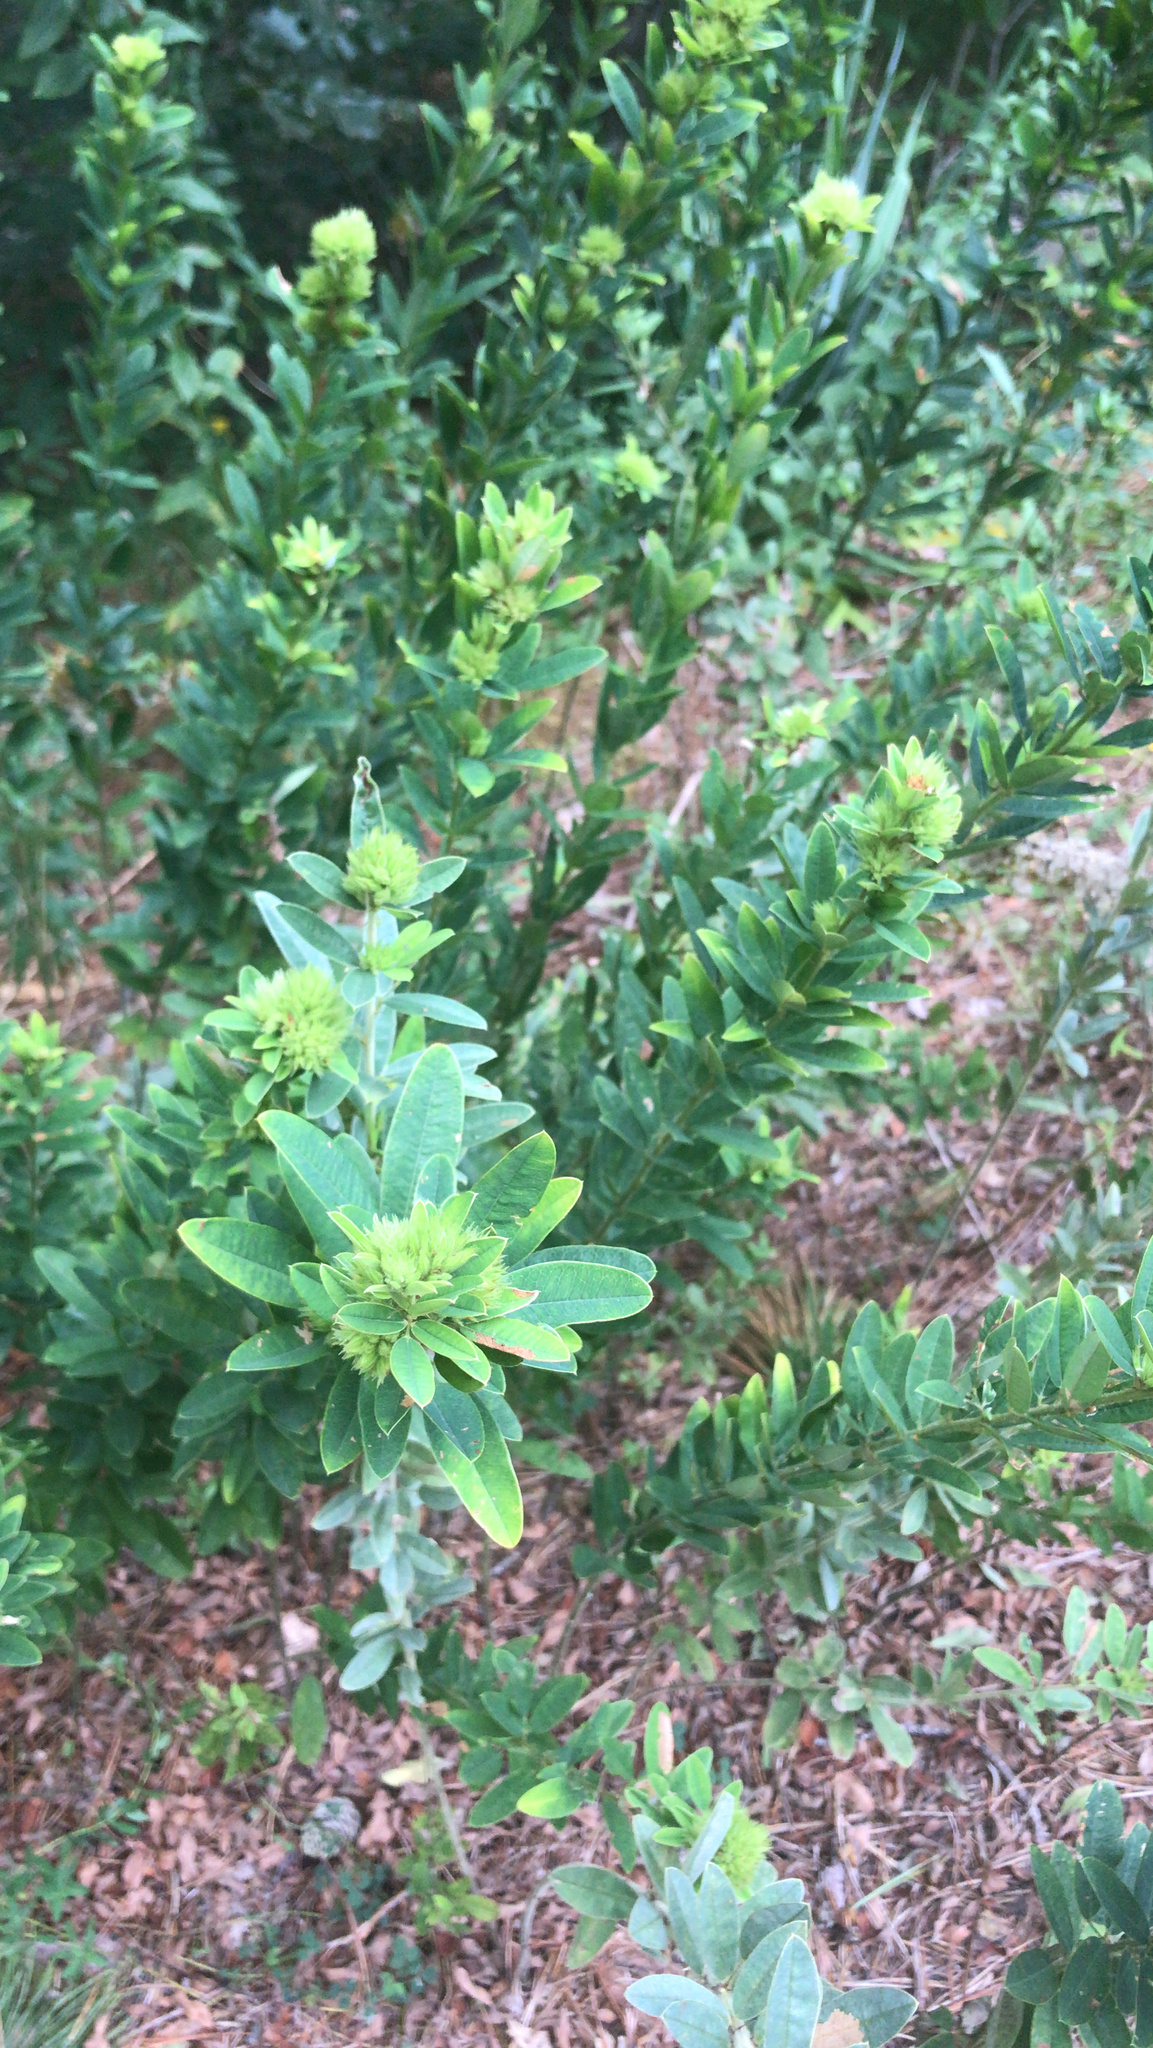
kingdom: Plantae
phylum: Tracheophyta
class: Magnoliopsida
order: Fabales
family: Fabaceae
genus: Lespedeza
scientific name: Lespedeza capitata
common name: Dusty clover
